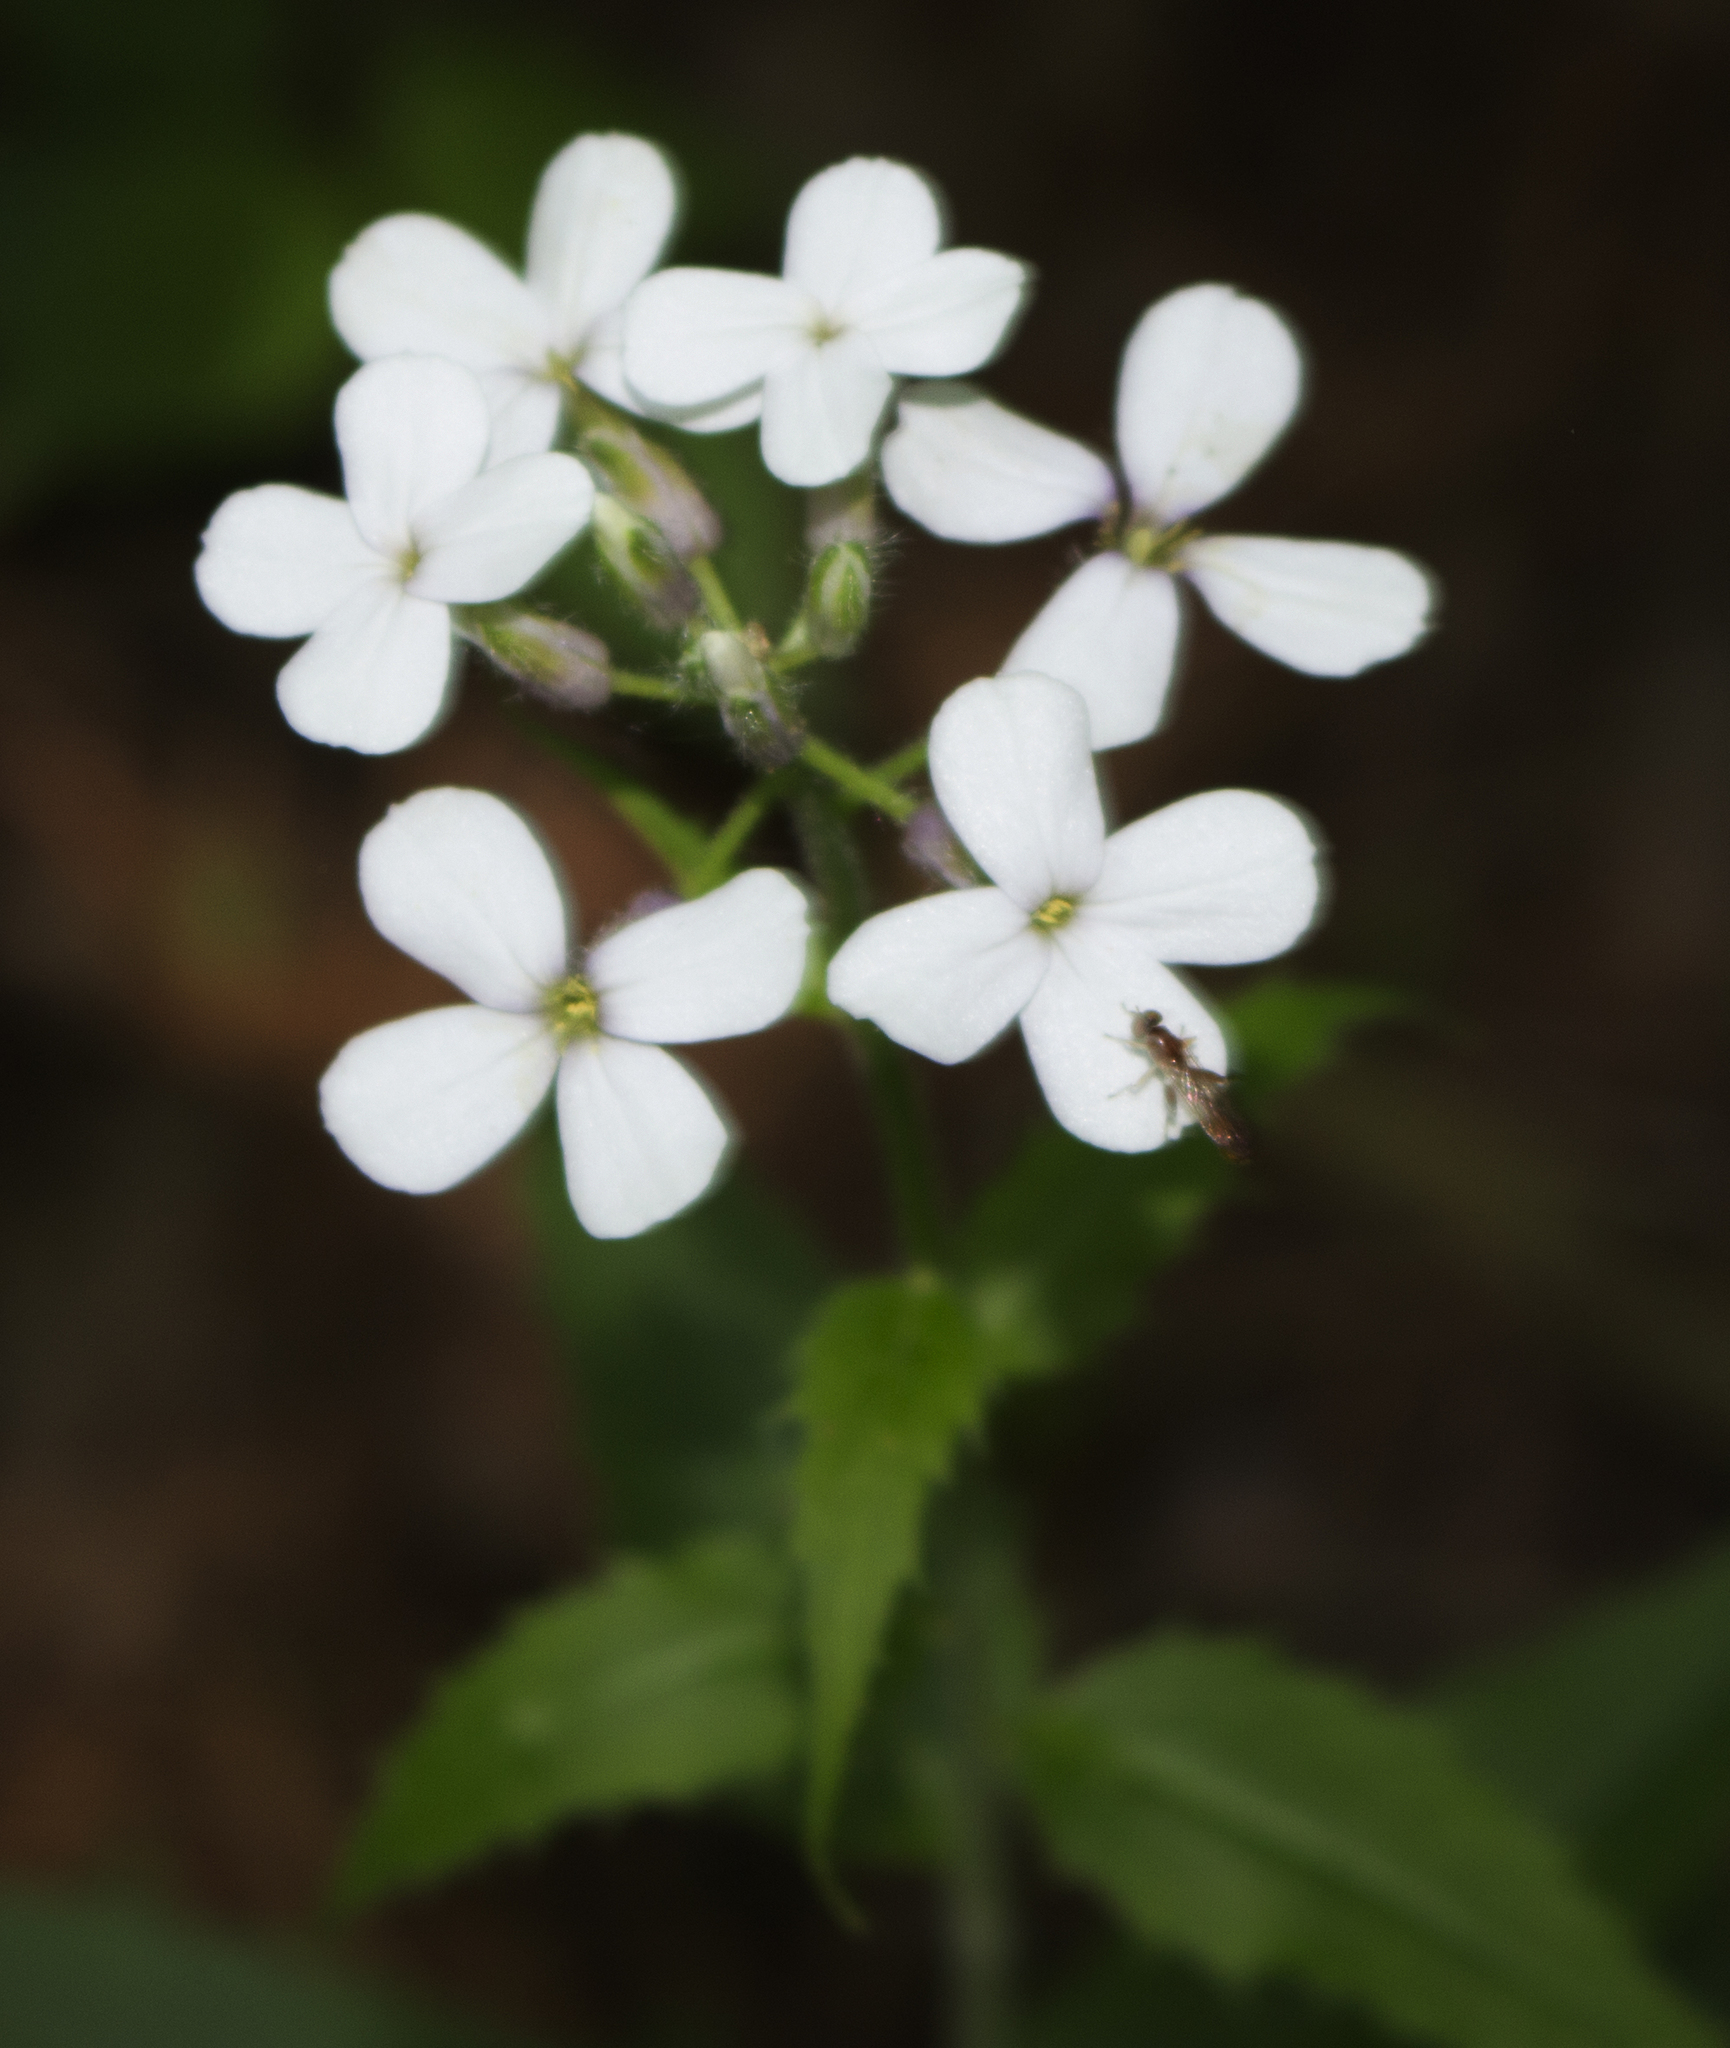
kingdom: Plantae
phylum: Tracheophyta
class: Magnoliopsida
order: Brassicales
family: Brassicaceae
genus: Hesperis
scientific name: Hesperis matronalis
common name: Dame's-violet
